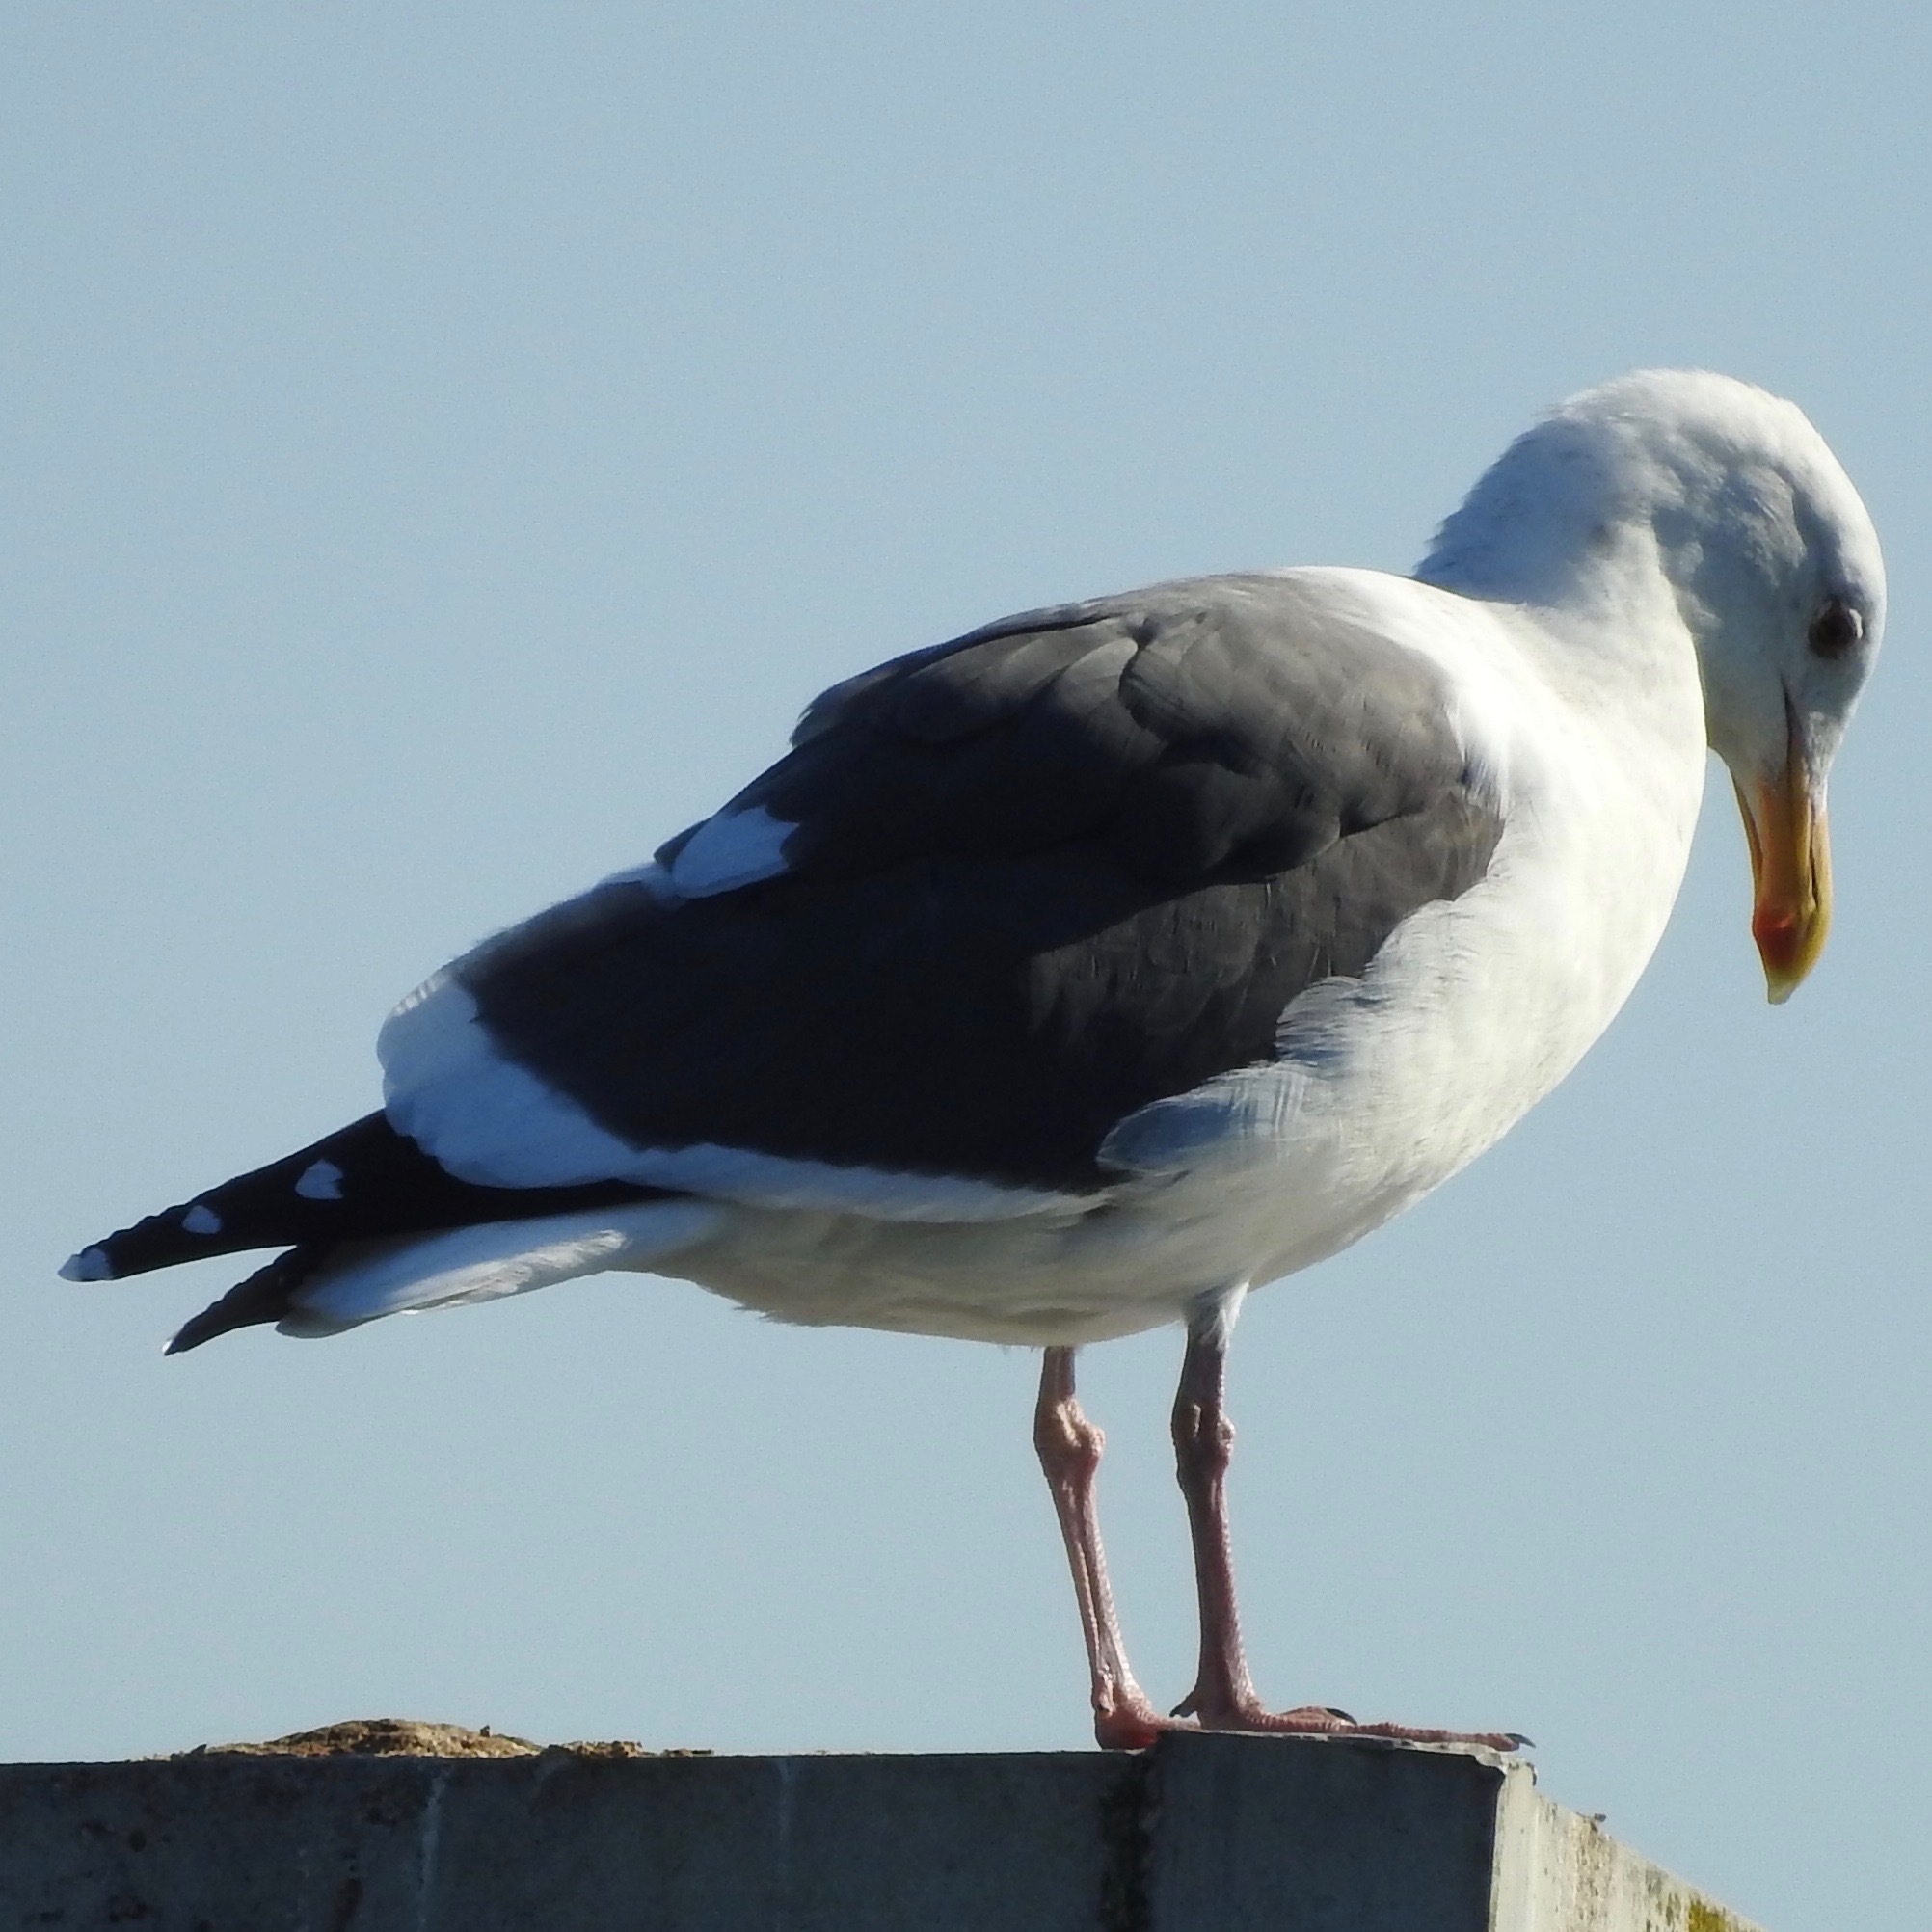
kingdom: Animalia
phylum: Chordata
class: Aves
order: Charadriiformes
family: Laridae
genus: Larus
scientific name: Larus occidentalis
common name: Western gull
